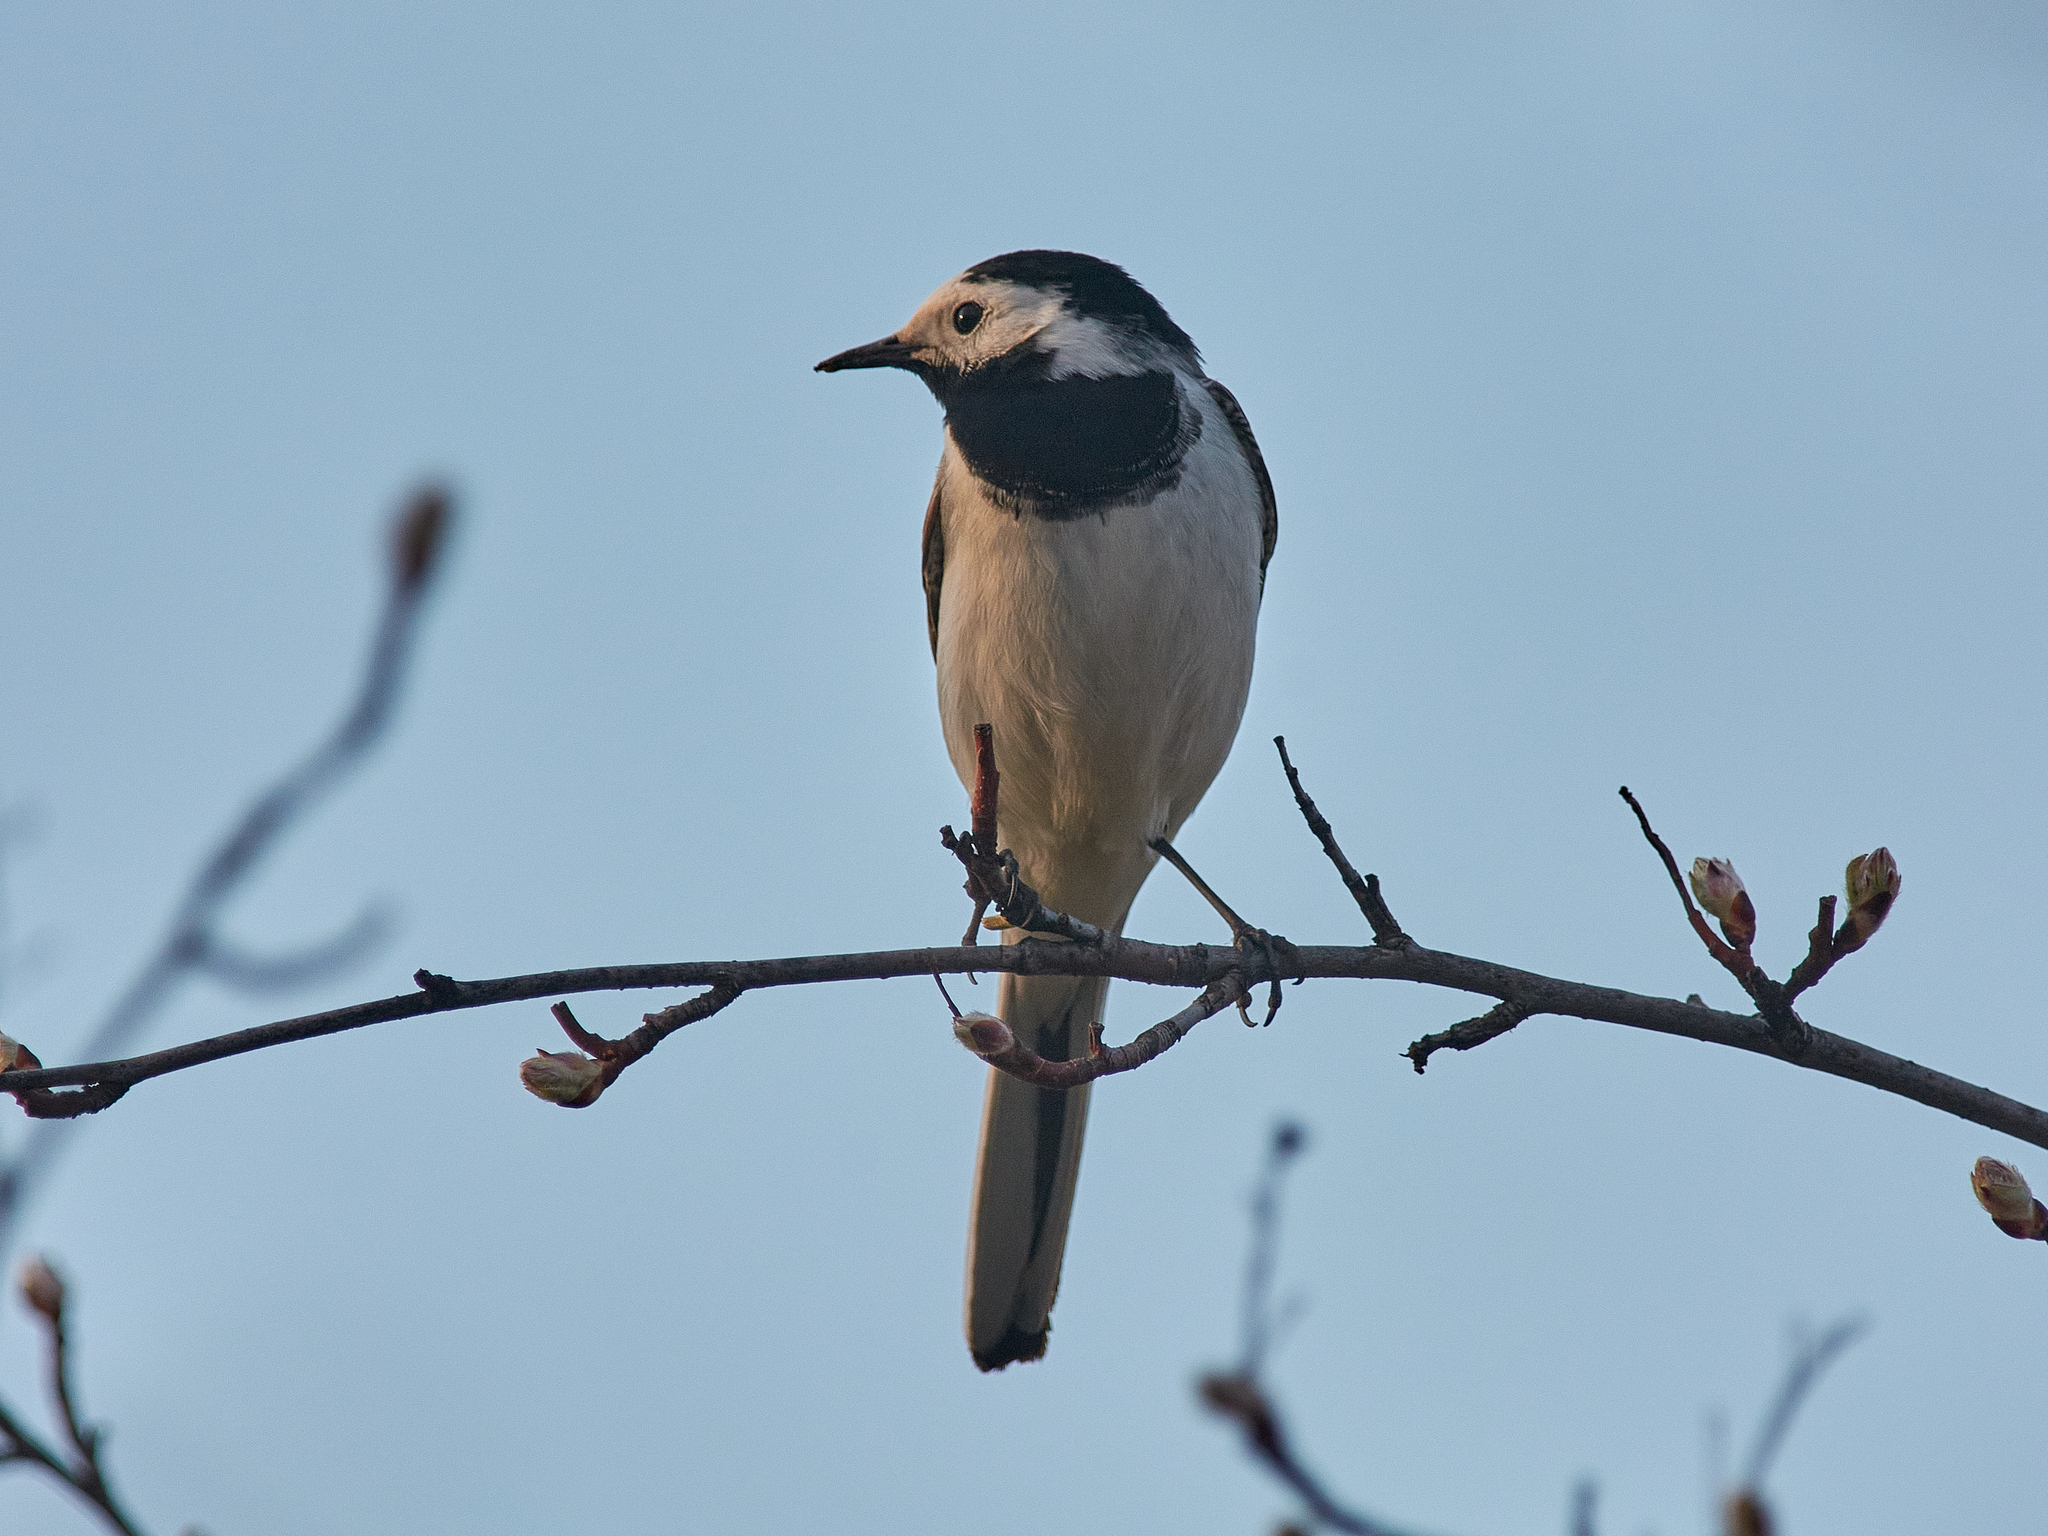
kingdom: Animalia
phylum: Chordata
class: Aves
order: Passeriformes
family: Motacillidae
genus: Motacilla
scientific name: Motacilla alba
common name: White wagtail
